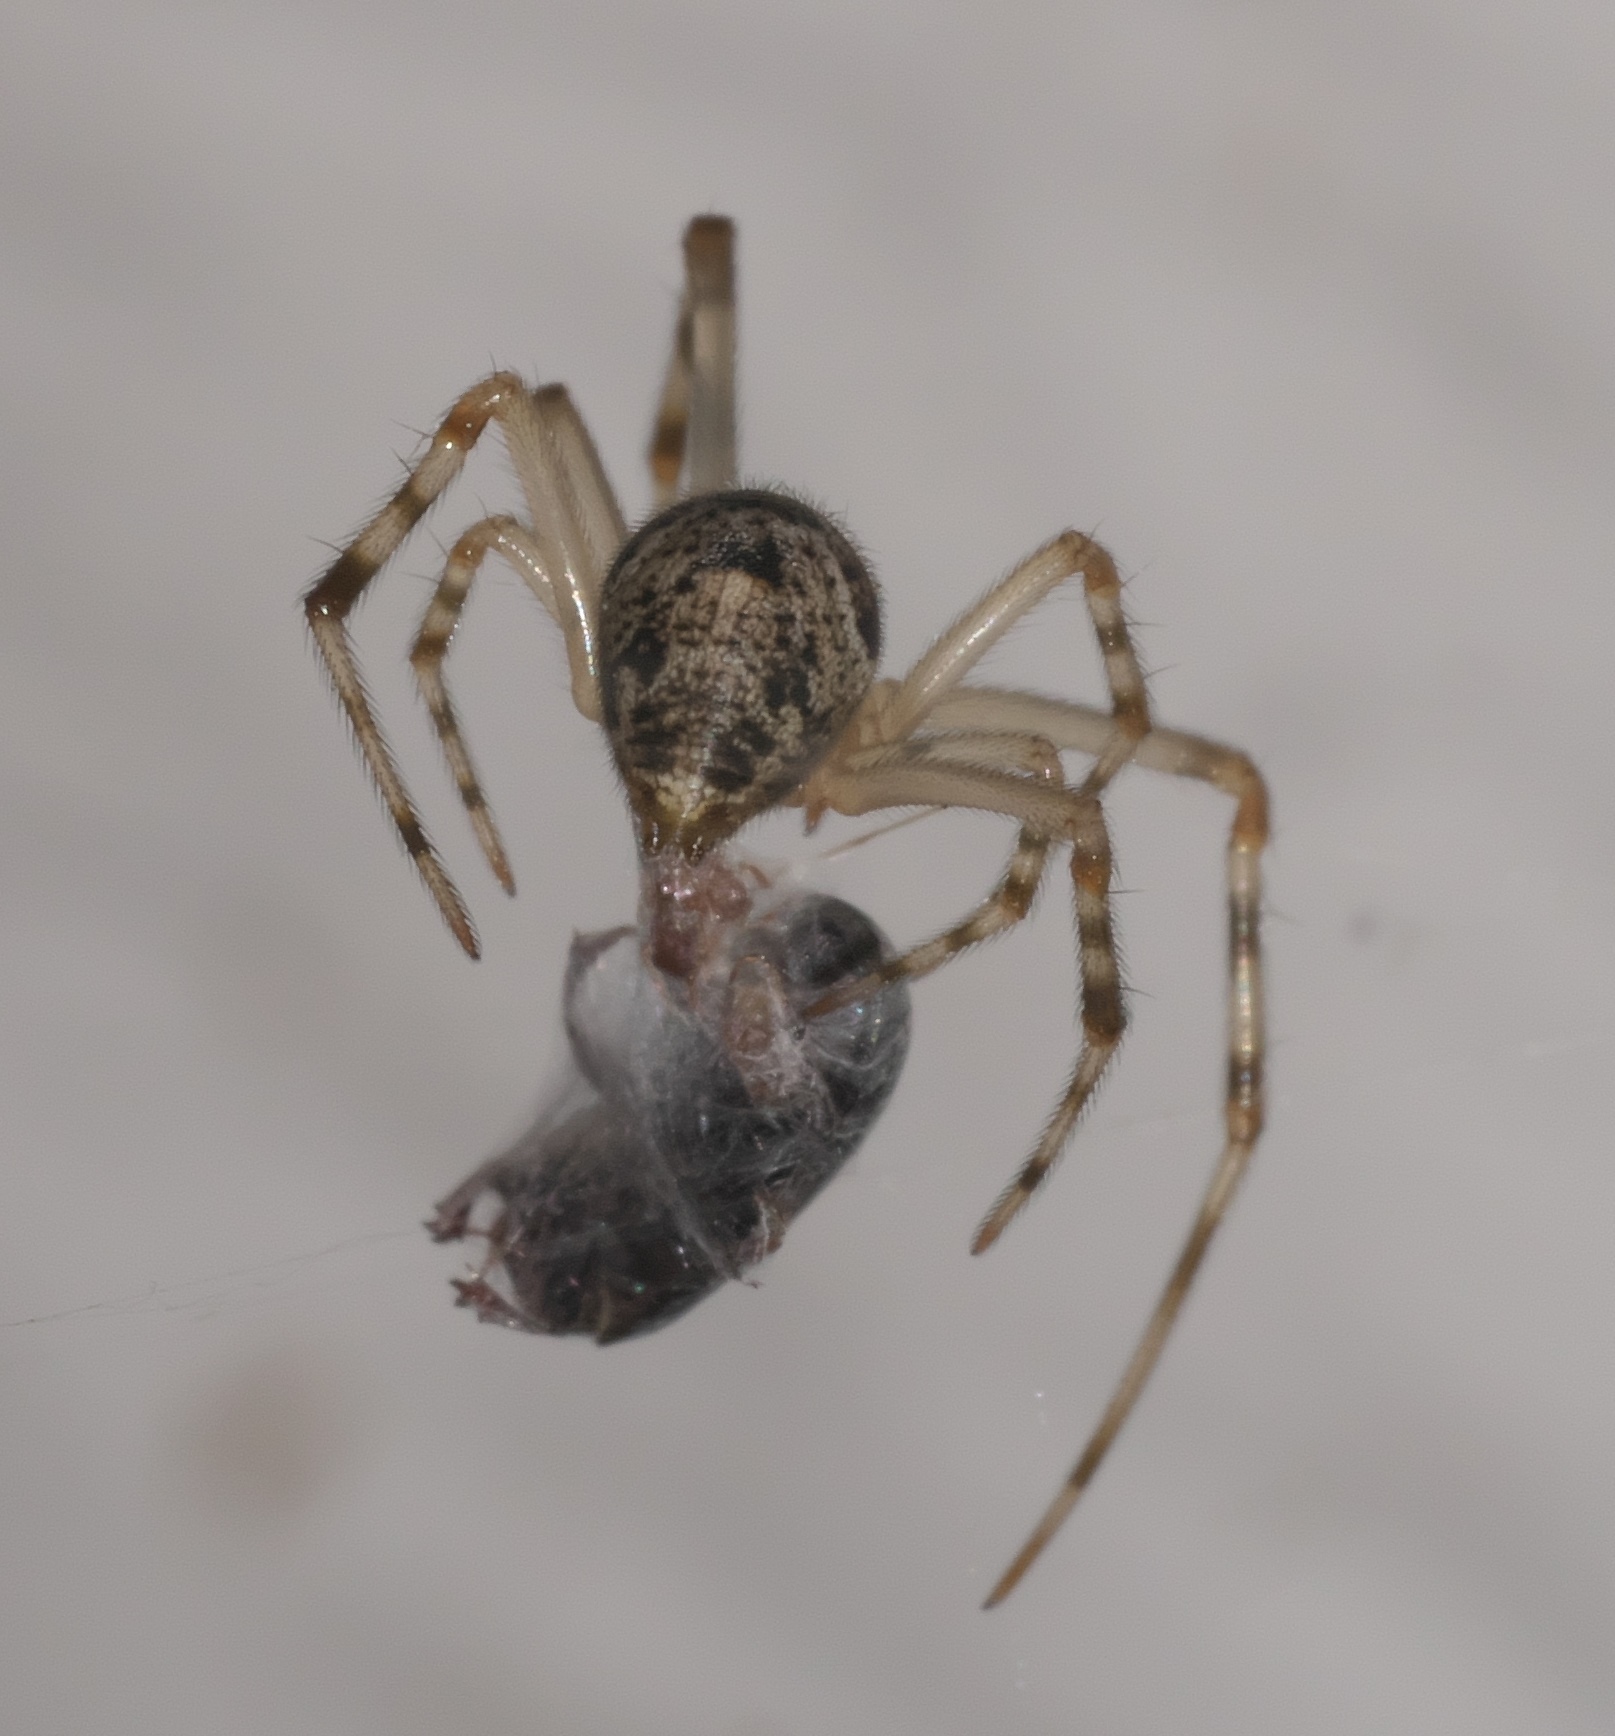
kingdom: Animalia
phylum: Arthropoda
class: Arachnida
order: Araneae
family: Theridiidae
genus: Parasteatoda
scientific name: Parasteatoda tepidariorum
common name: Common house spider
